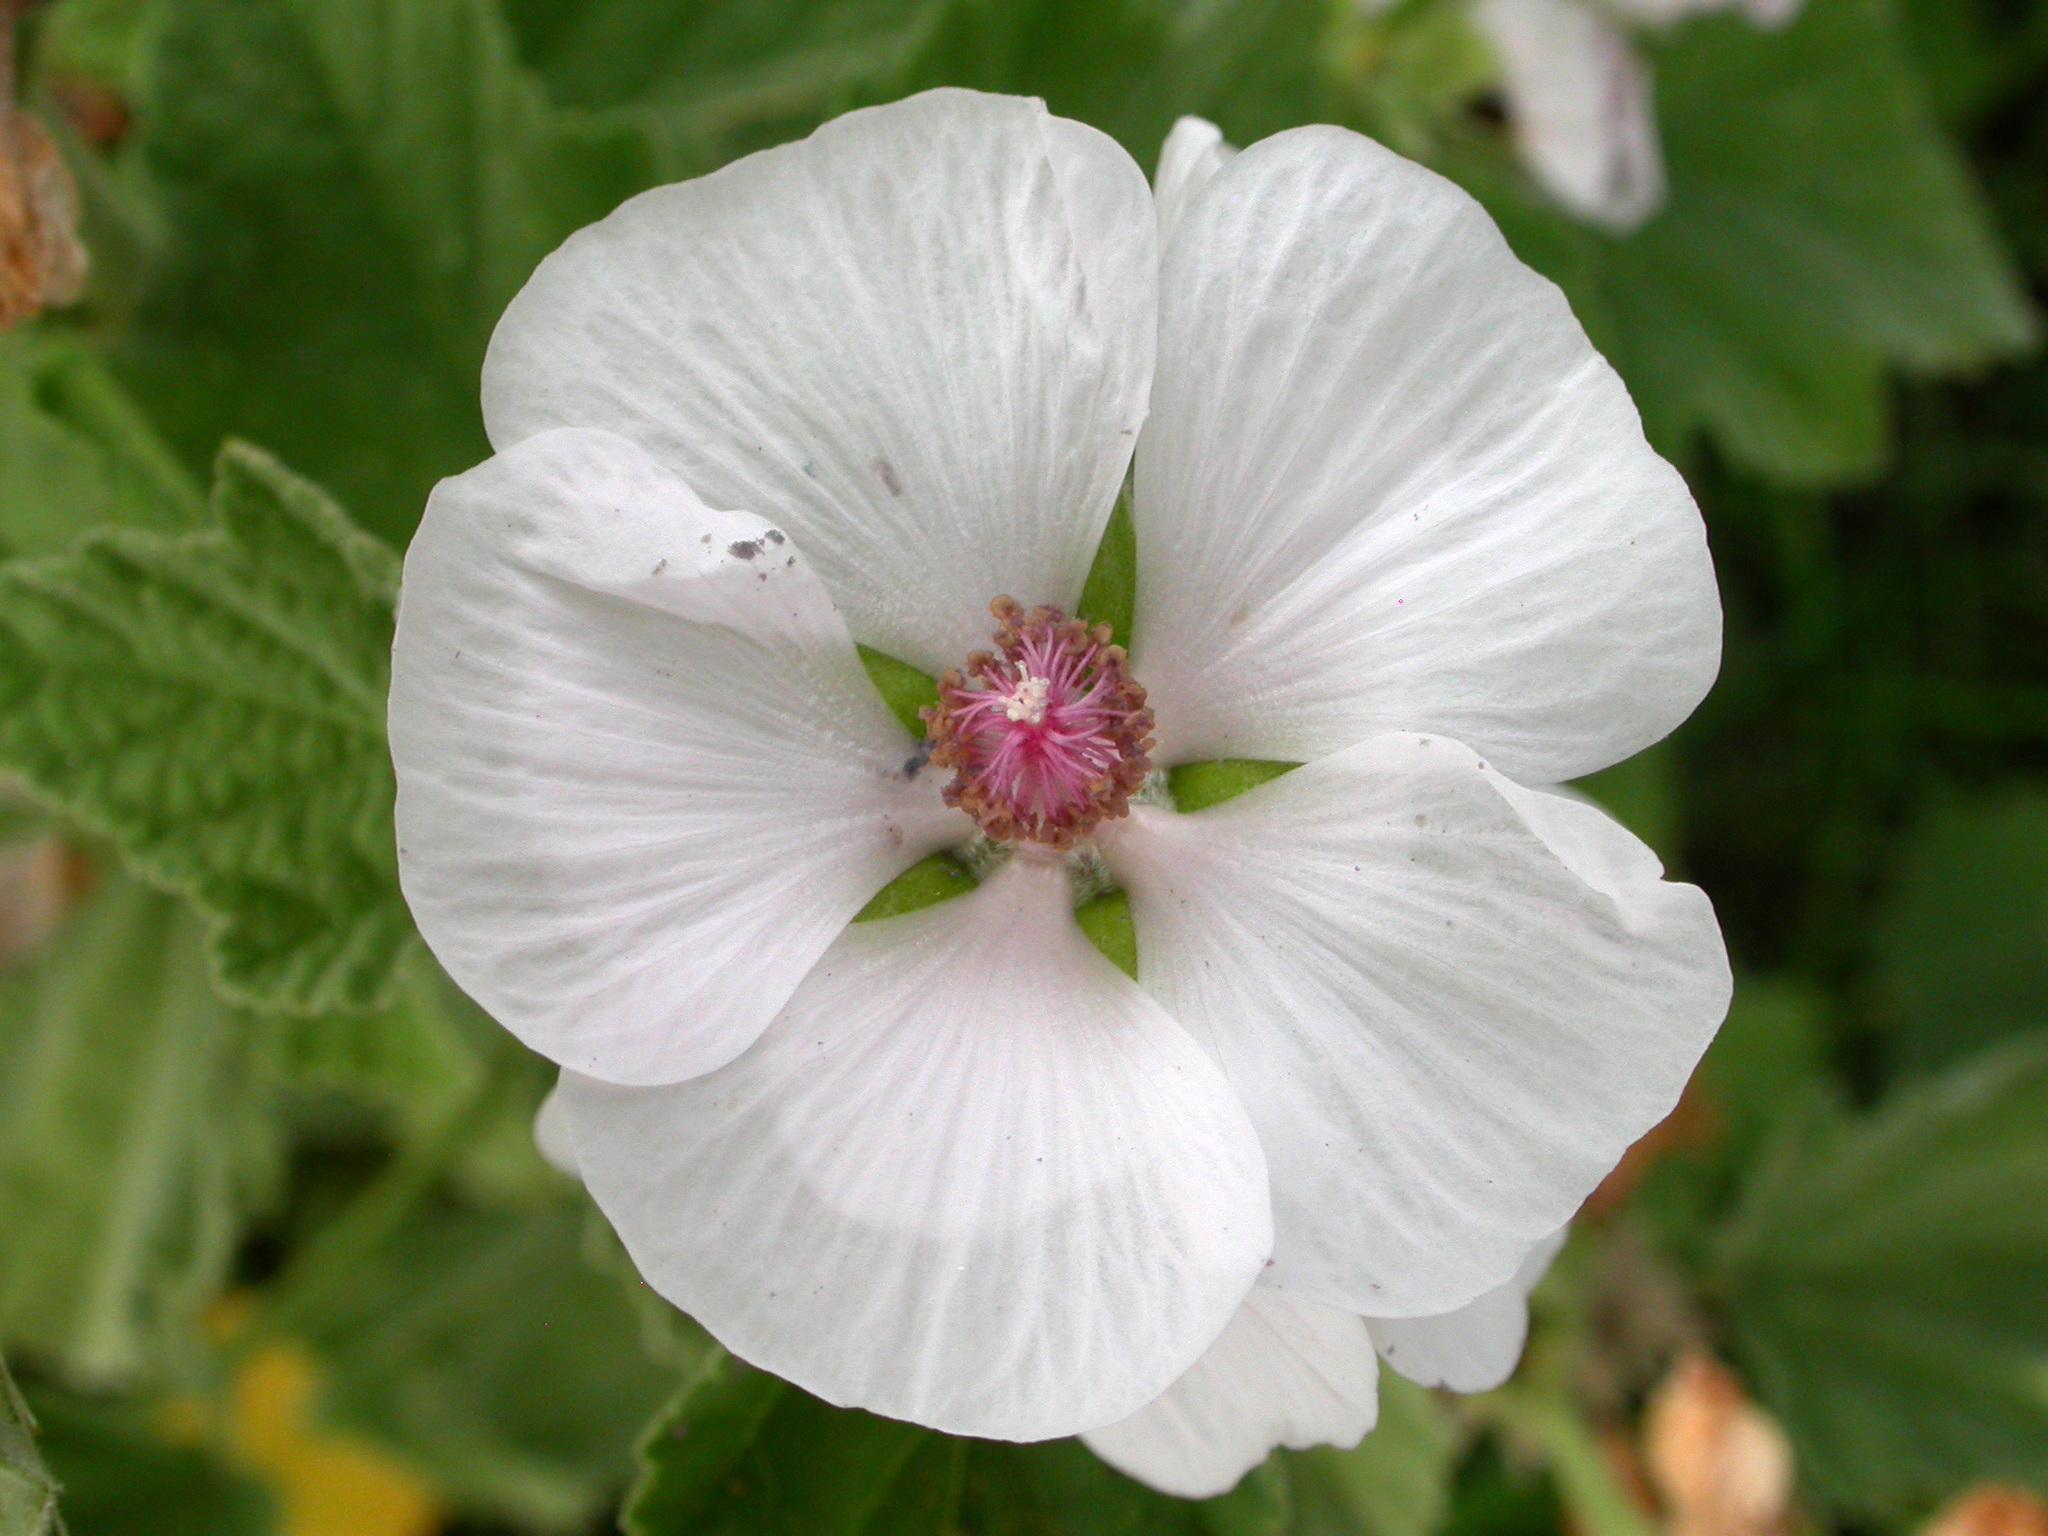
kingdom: Plantae
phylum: Tracheophyta
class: Magnoliopsida
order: Malvales
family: Malvaceae
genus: Althaea
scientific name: Althaea officinalis
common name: Marsh-mallow
